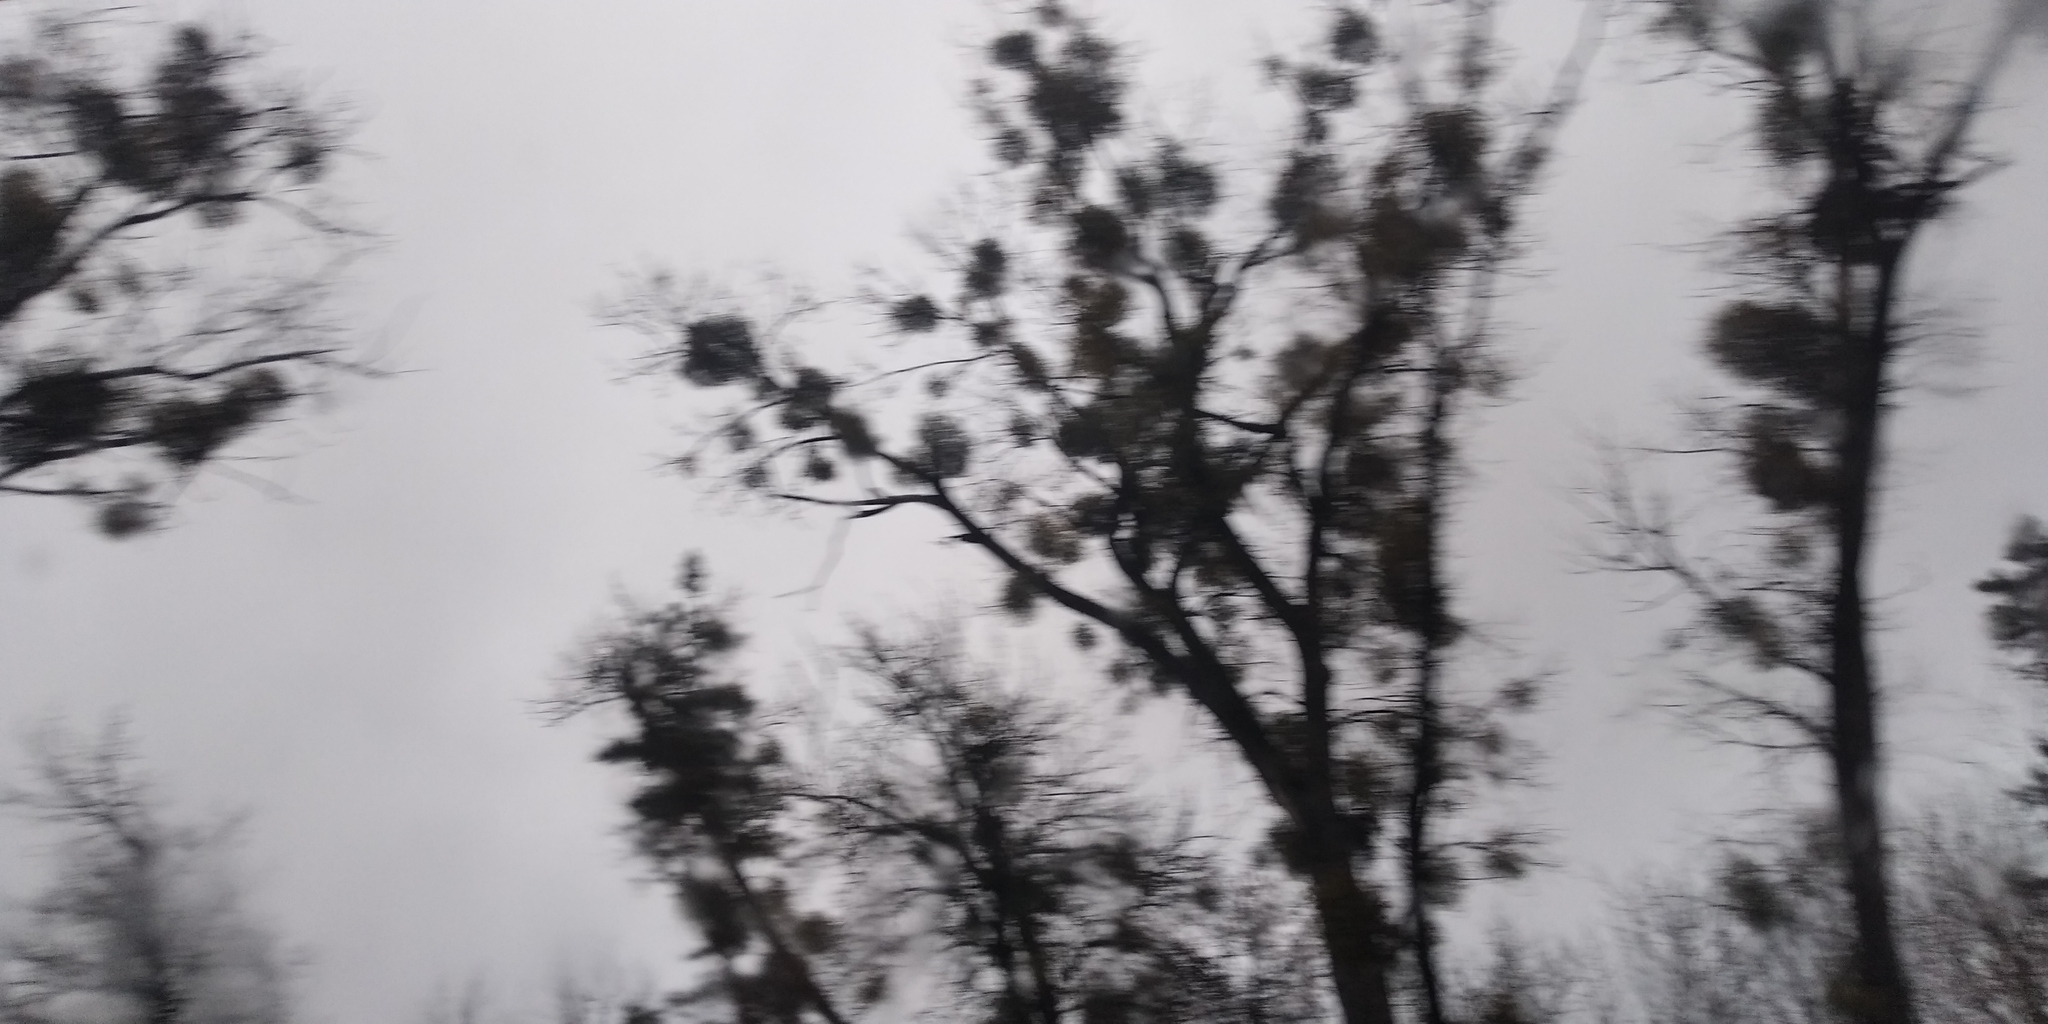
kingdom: Plantae
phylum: Tracheophyta
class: Magnoliopsida
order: Santalales
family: Viscaceae
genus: Viscum
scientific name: Viscum album
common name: Mistletoe
